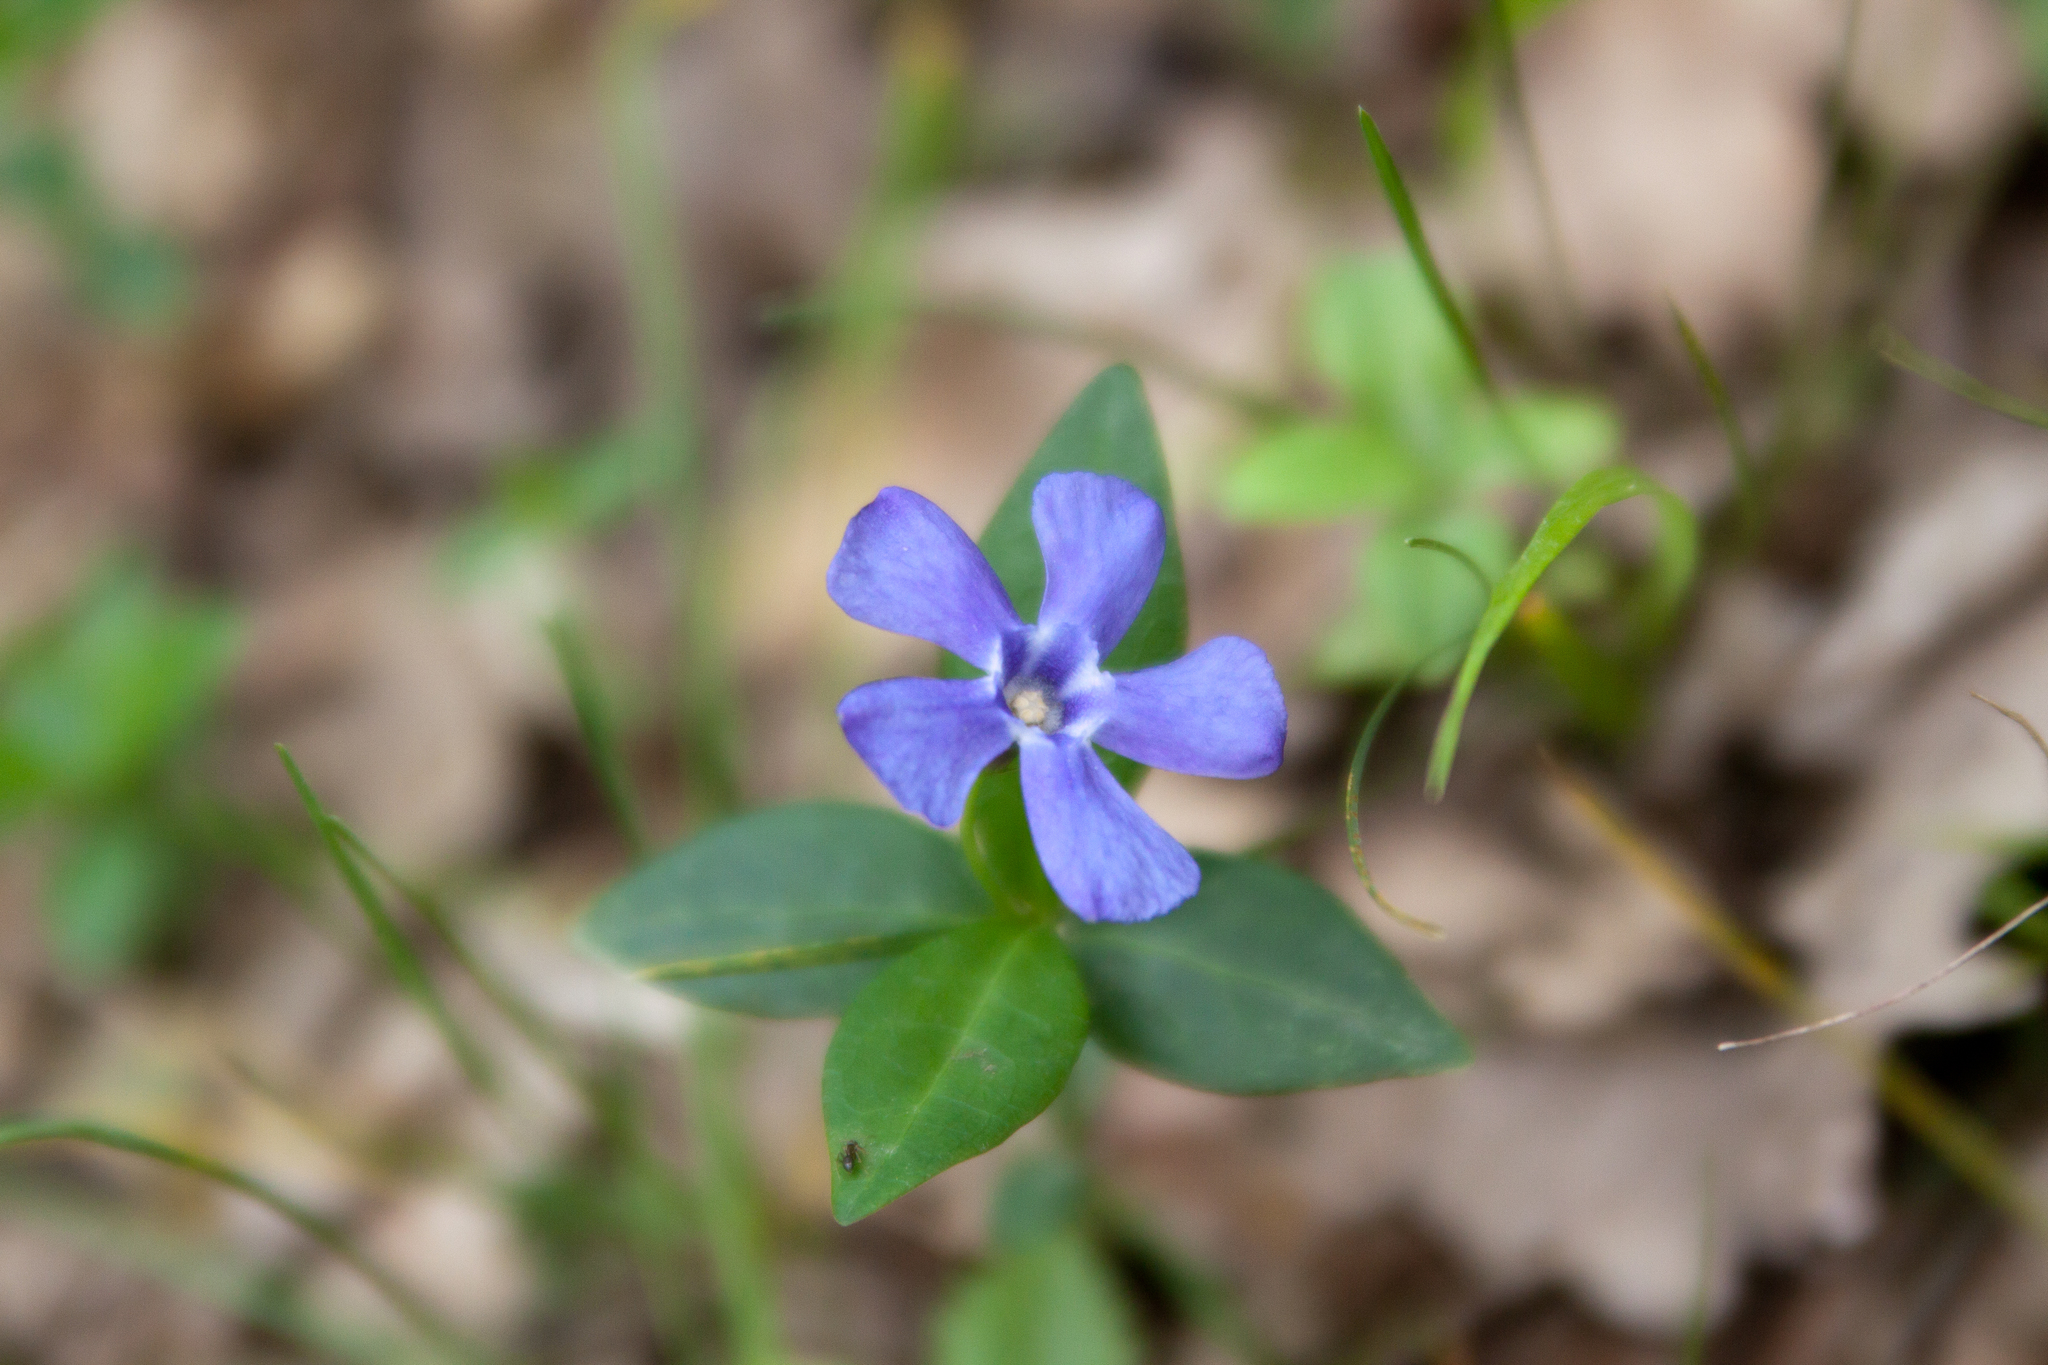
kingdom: Plantae
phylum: Tracheophyta
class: Magnoliopsida
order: Gentianales
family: Apocynaceae
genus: Vinca
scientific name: Vinca minor
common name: Lesser periwinkle
